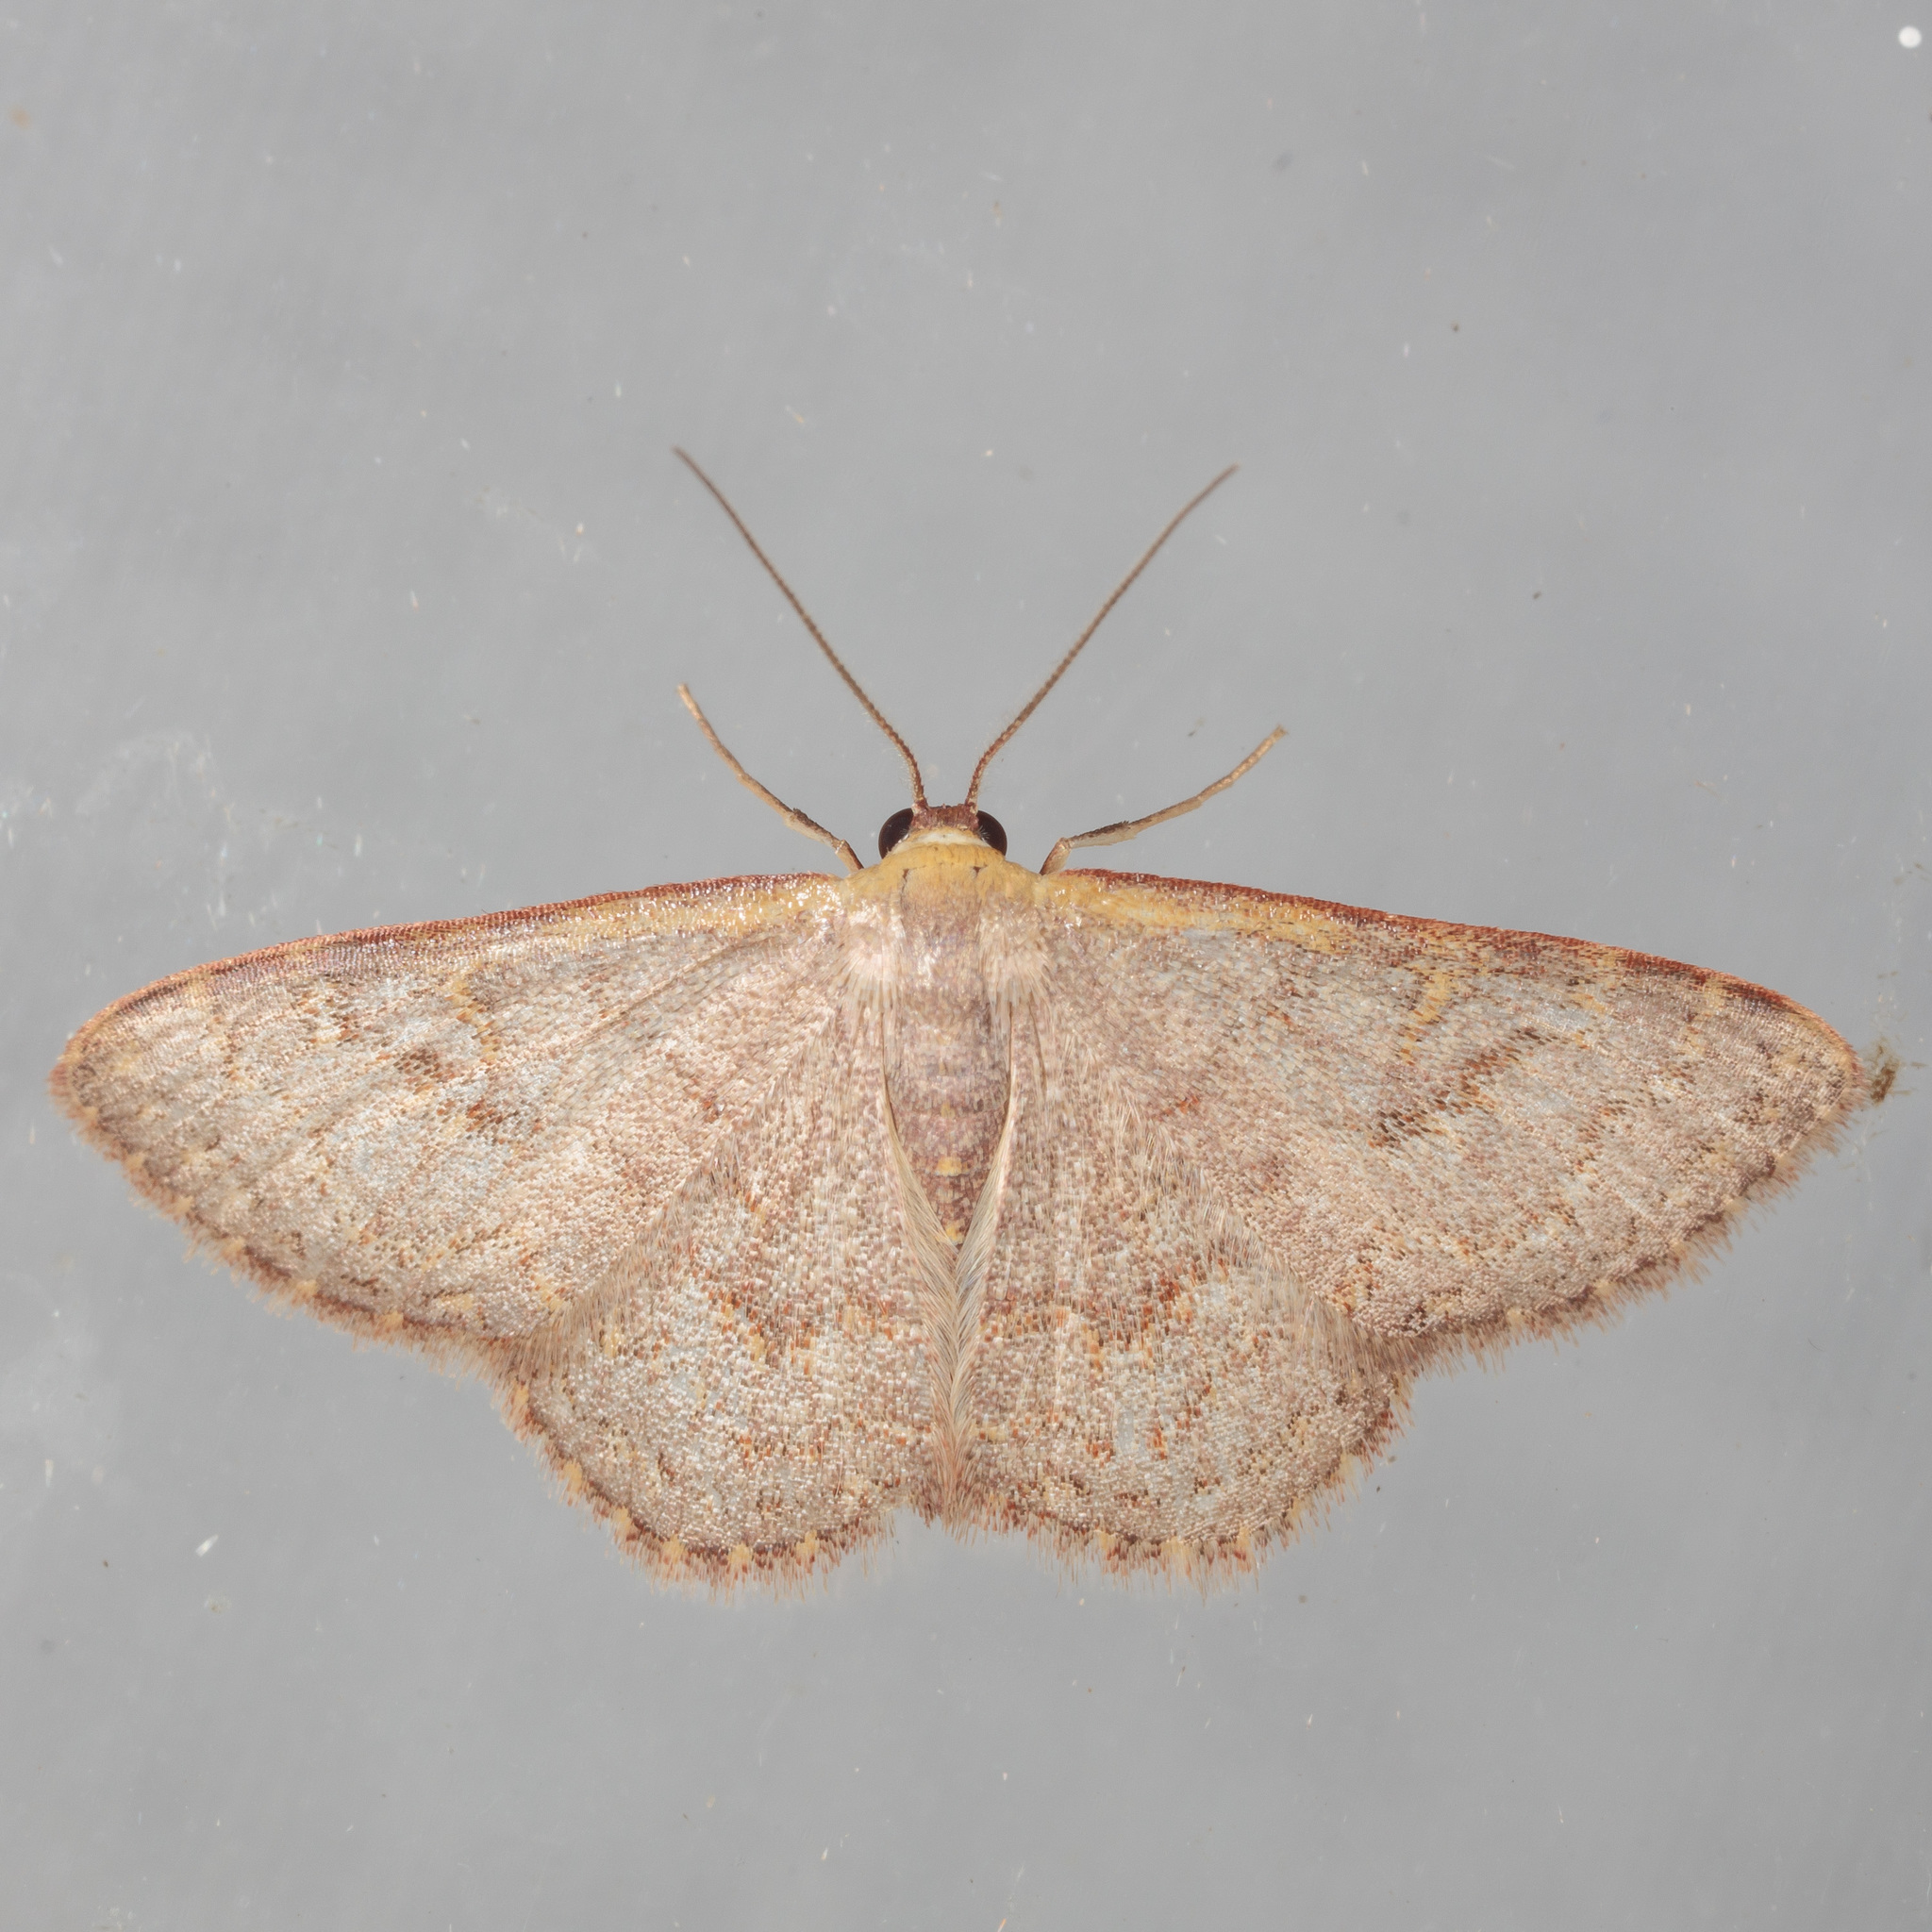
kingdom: Animalia
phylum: Arthropoda
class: Insecta
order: Lepidoptera
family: Geometridae
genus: Leptostales
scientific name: Leptostales pannaria
